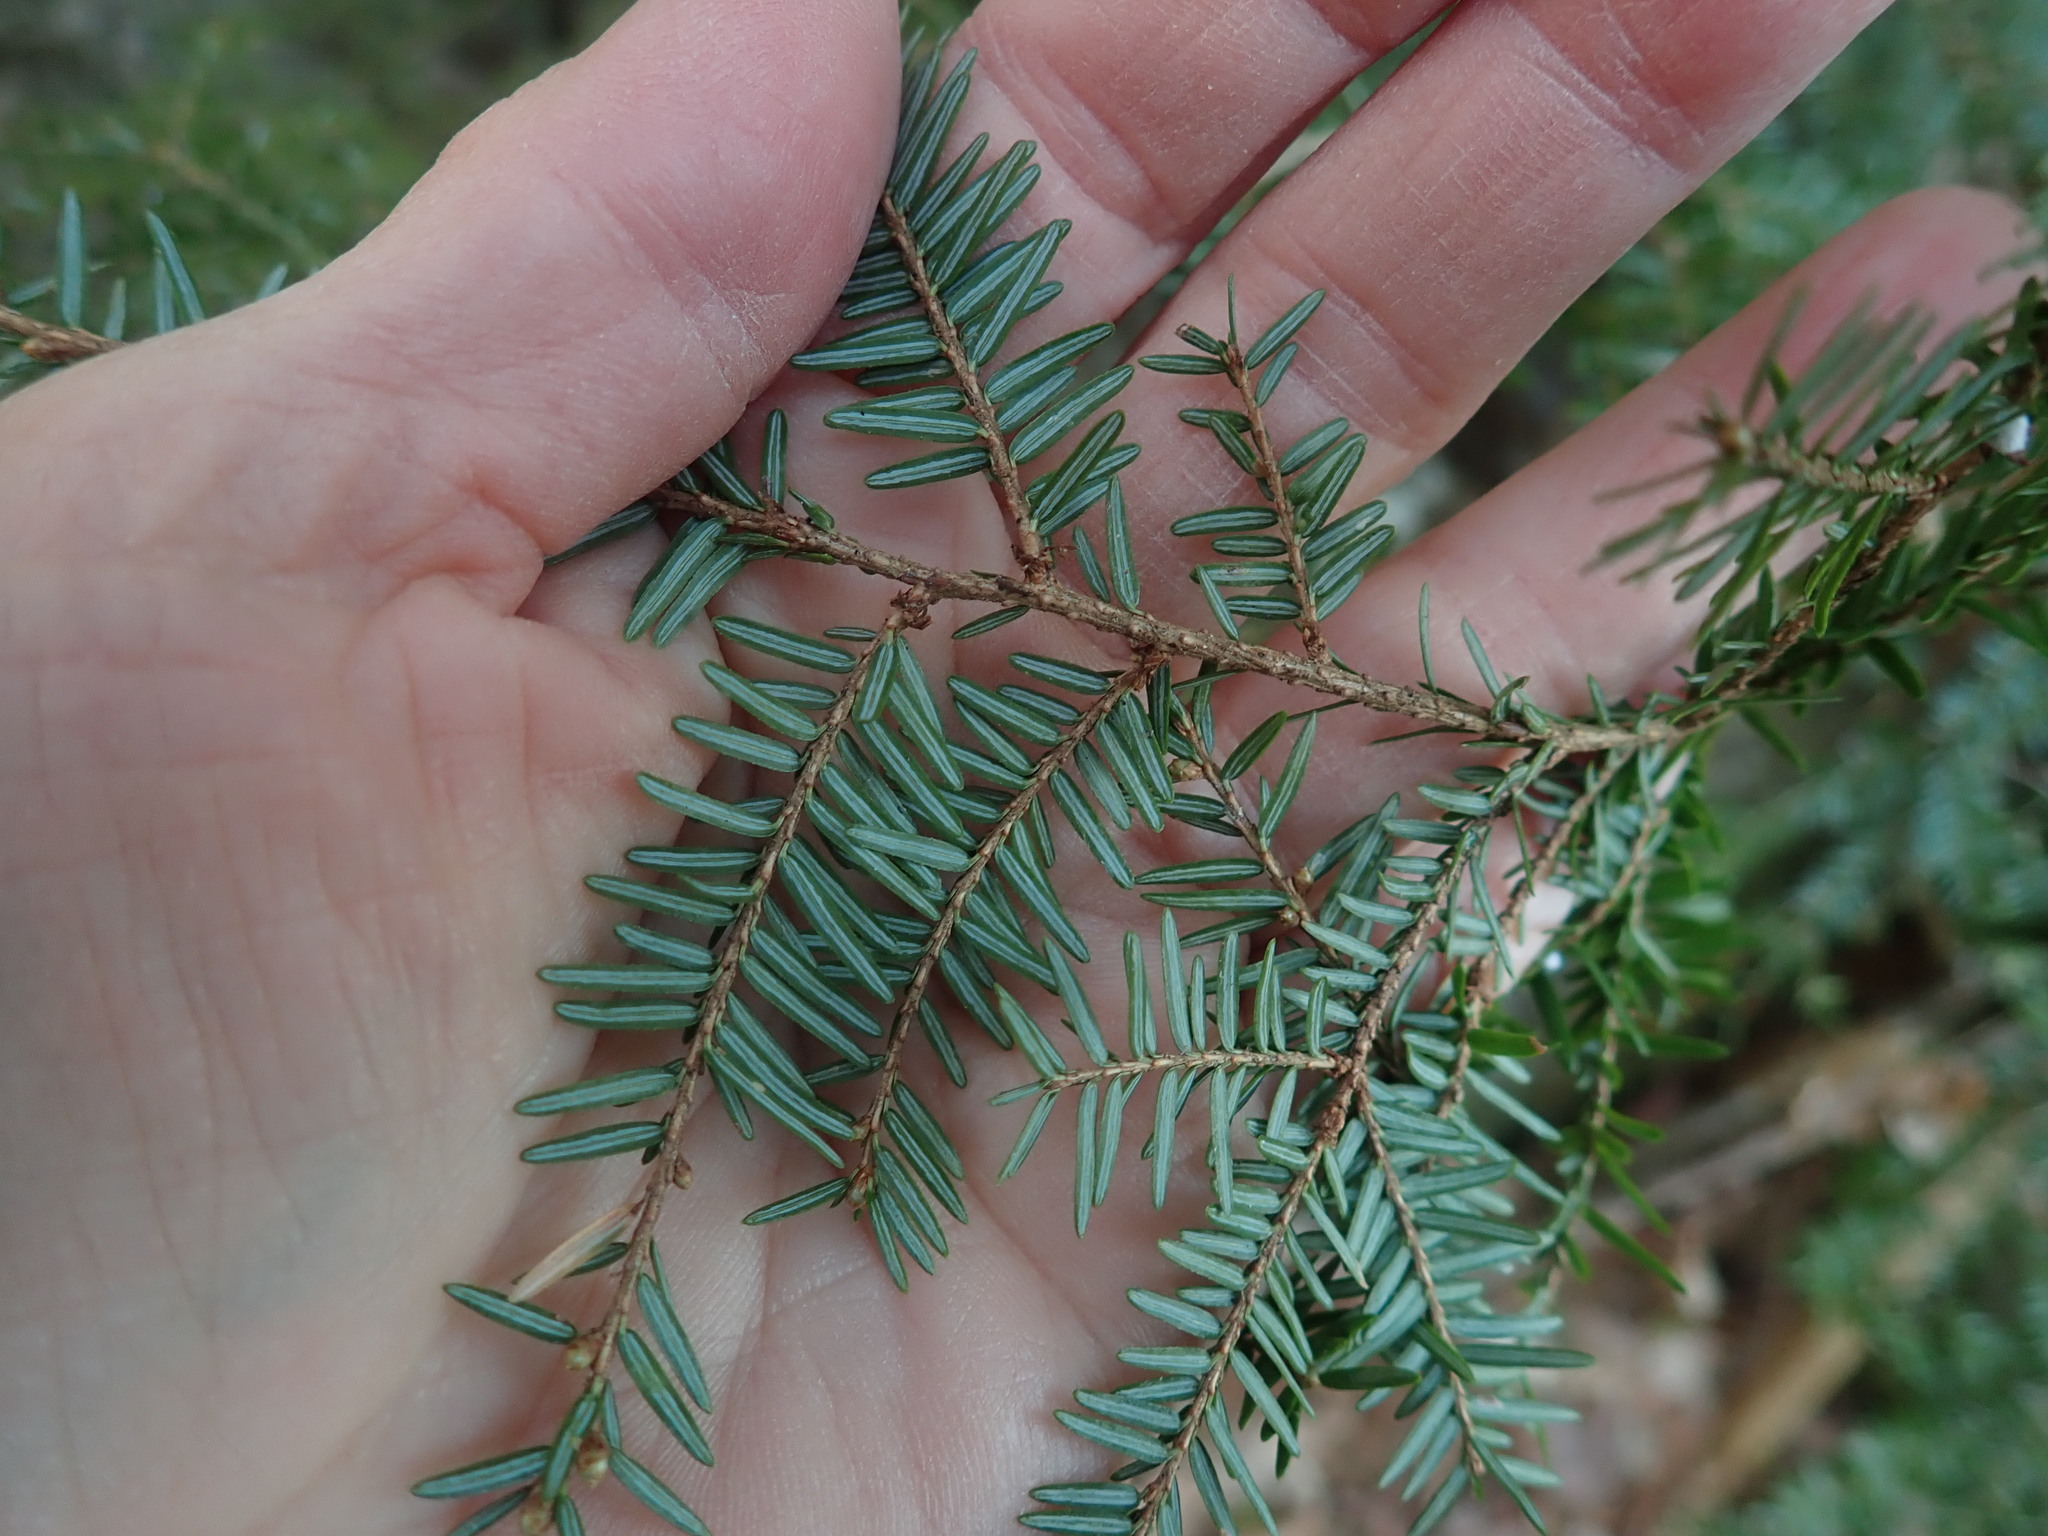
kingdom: Plantae
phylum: Tracheophyta
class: Pinopsida
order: Pinales
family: Pinaceae
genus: Tsuga
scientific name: Tsuga canadensis
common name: Eastern hemlock
